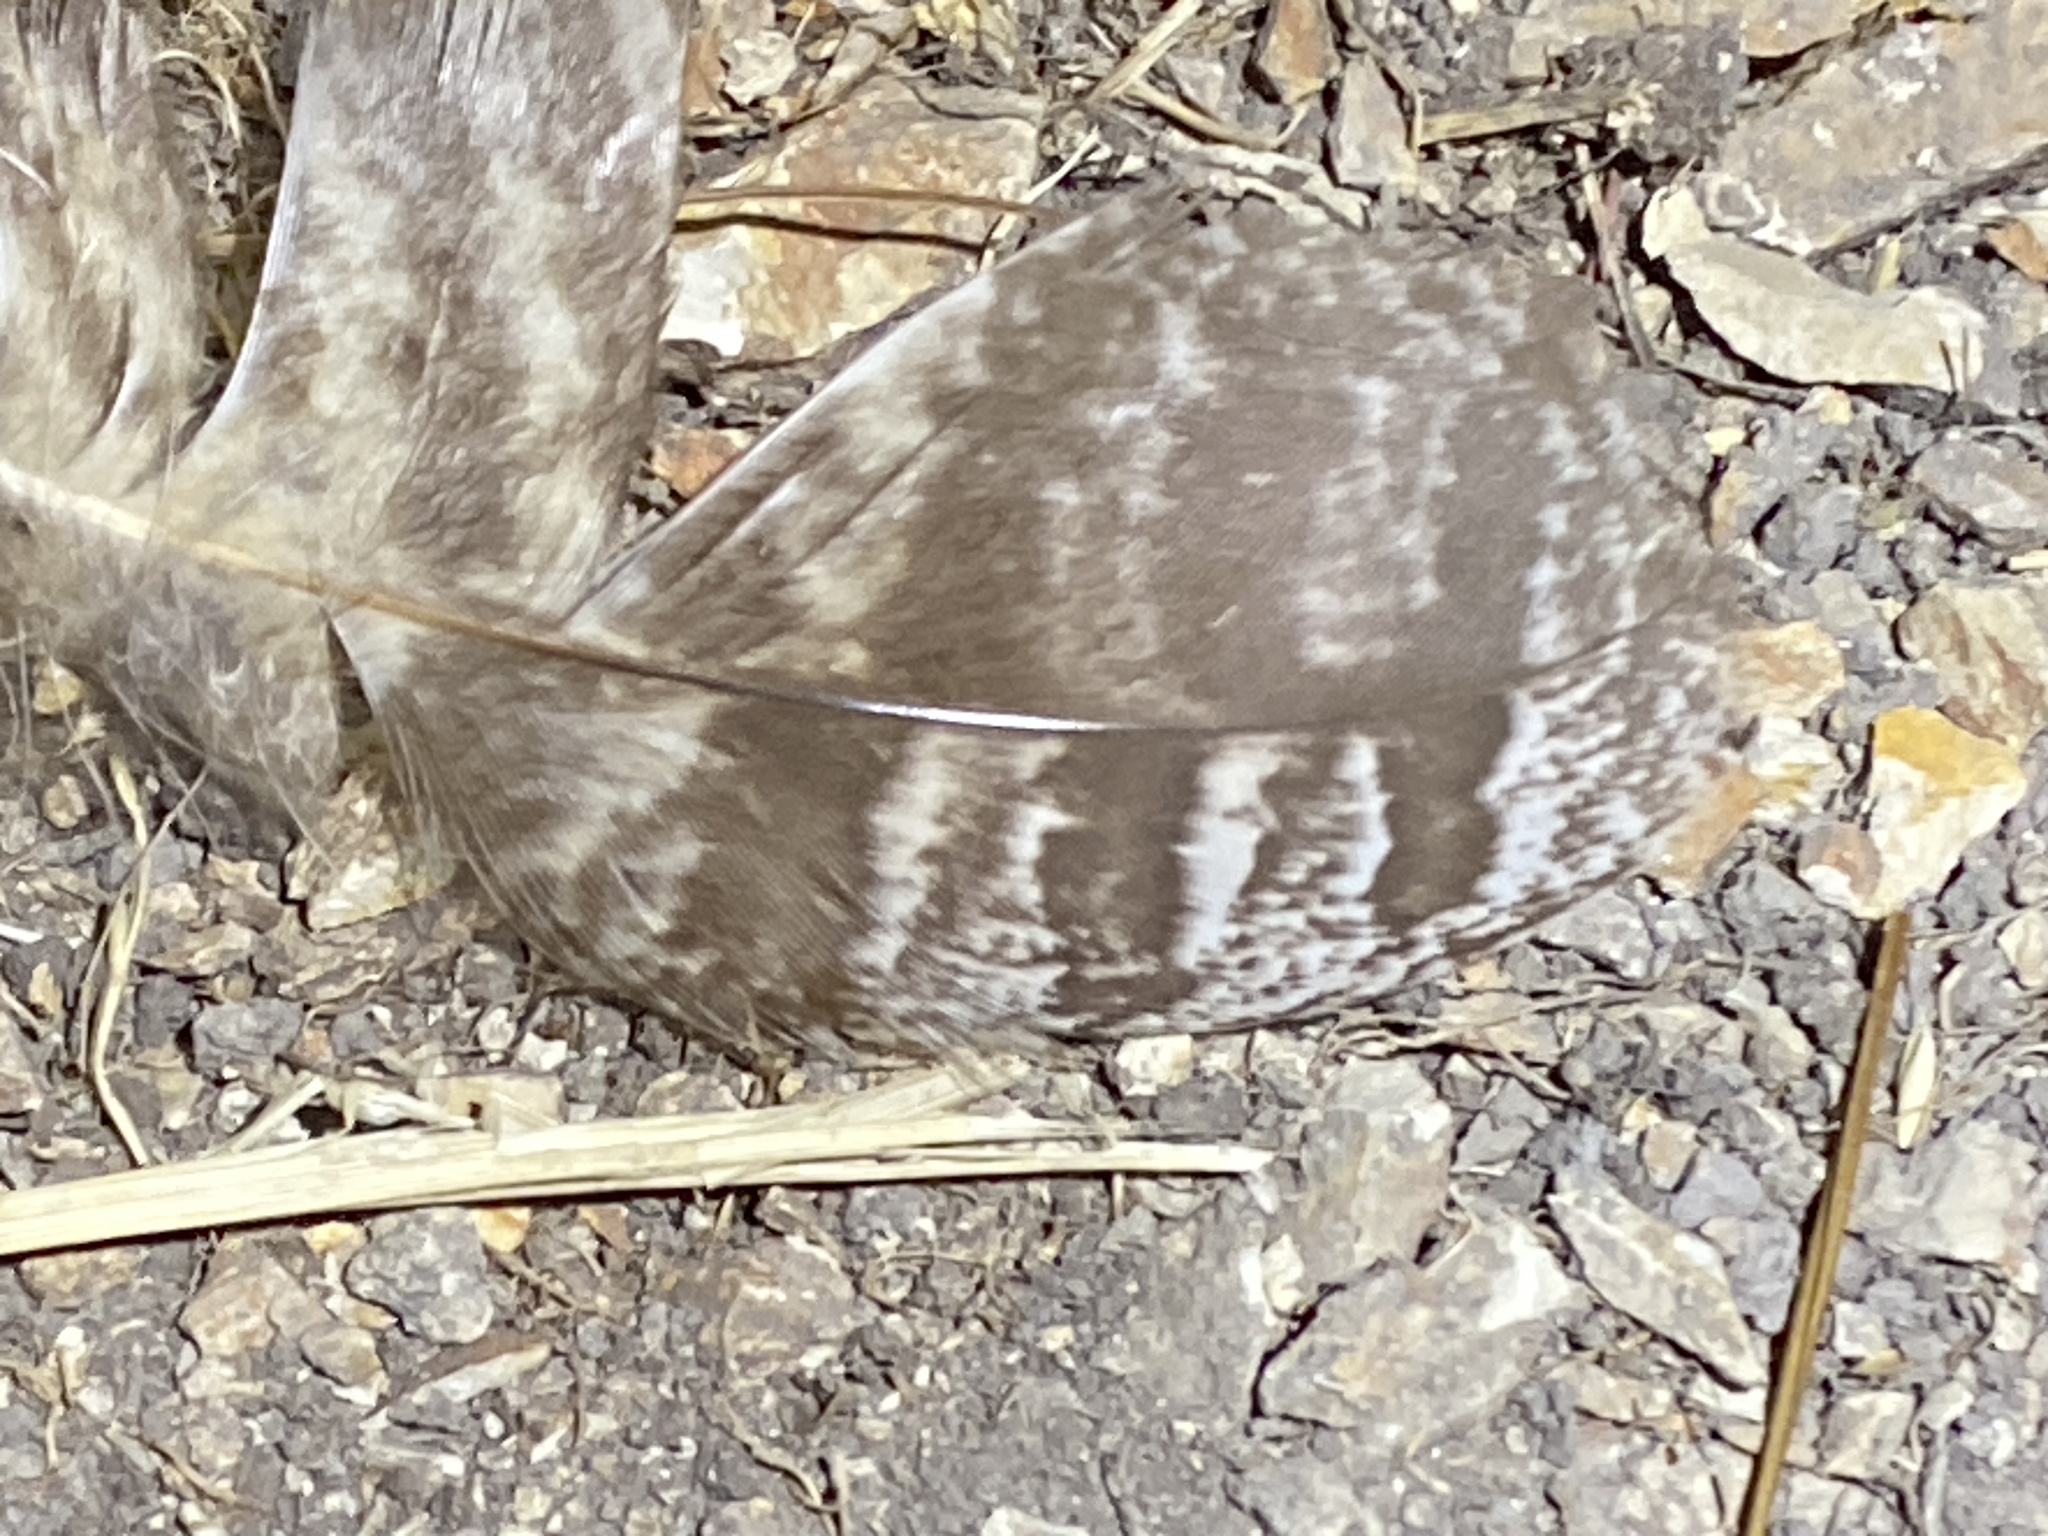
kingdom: Animalia
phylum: Chordata
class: Aves
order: Strigiformes
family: Strigidae
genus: Bubo
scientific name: Bubo virginianus
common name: Great horned owl
